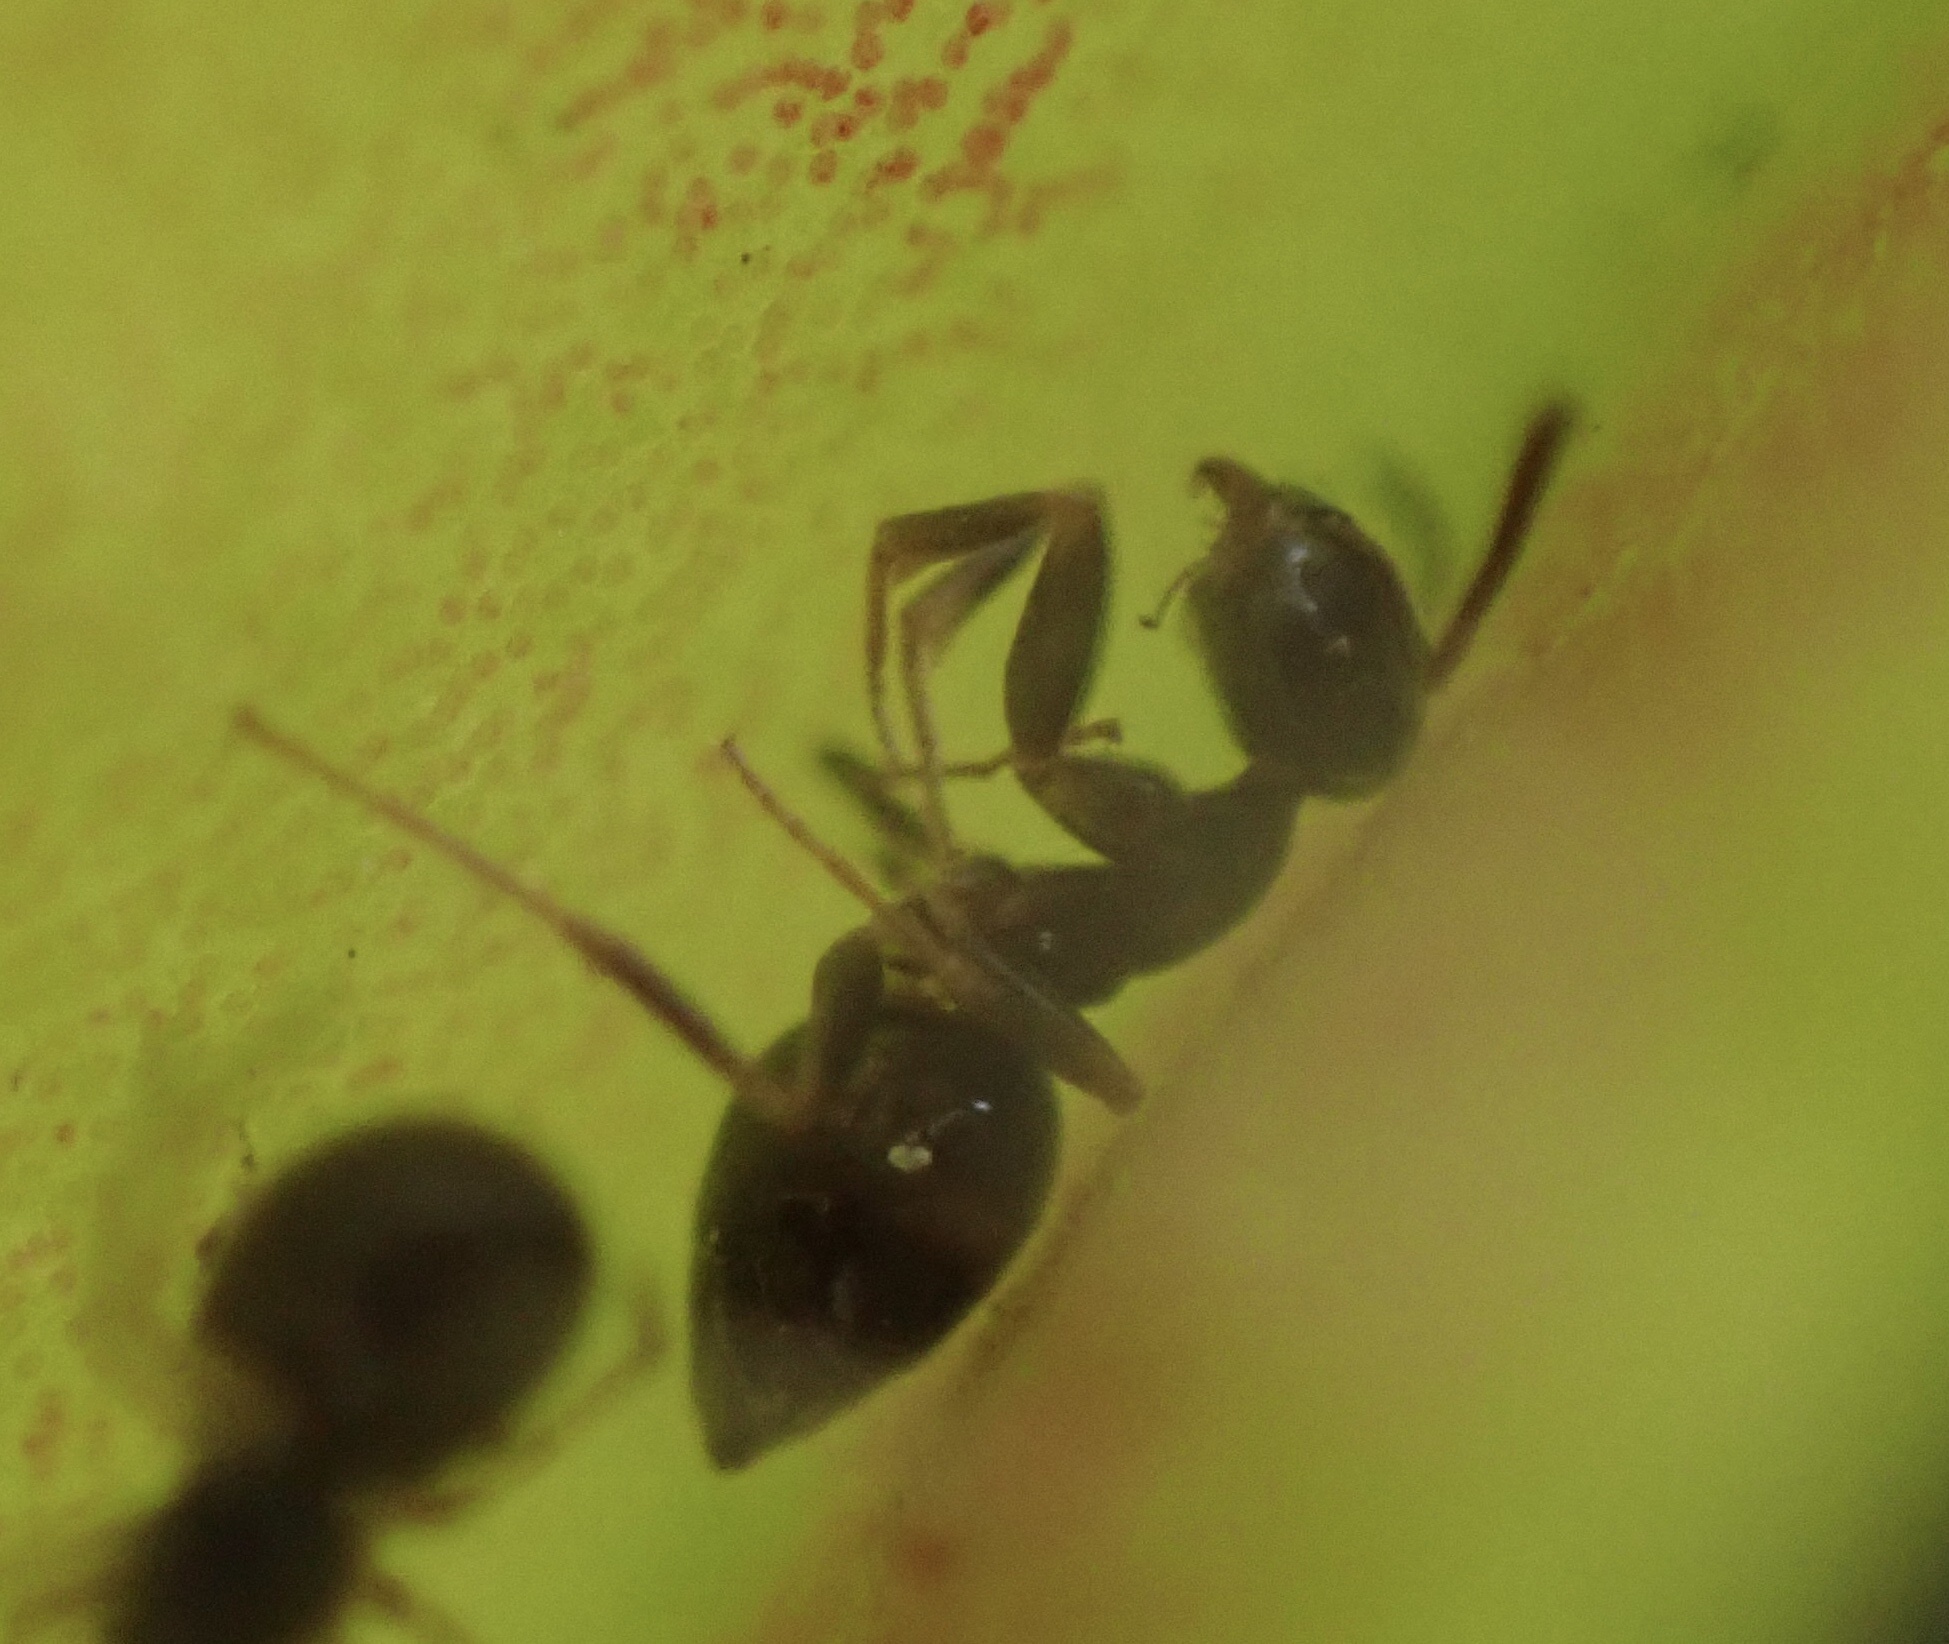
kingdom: Animalia
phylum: Arthropoda
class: Insecta
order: Hymenoptera
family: Formicidae
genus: Tapinoma
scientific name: Tapinoma sessile
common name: Odorous house ant
